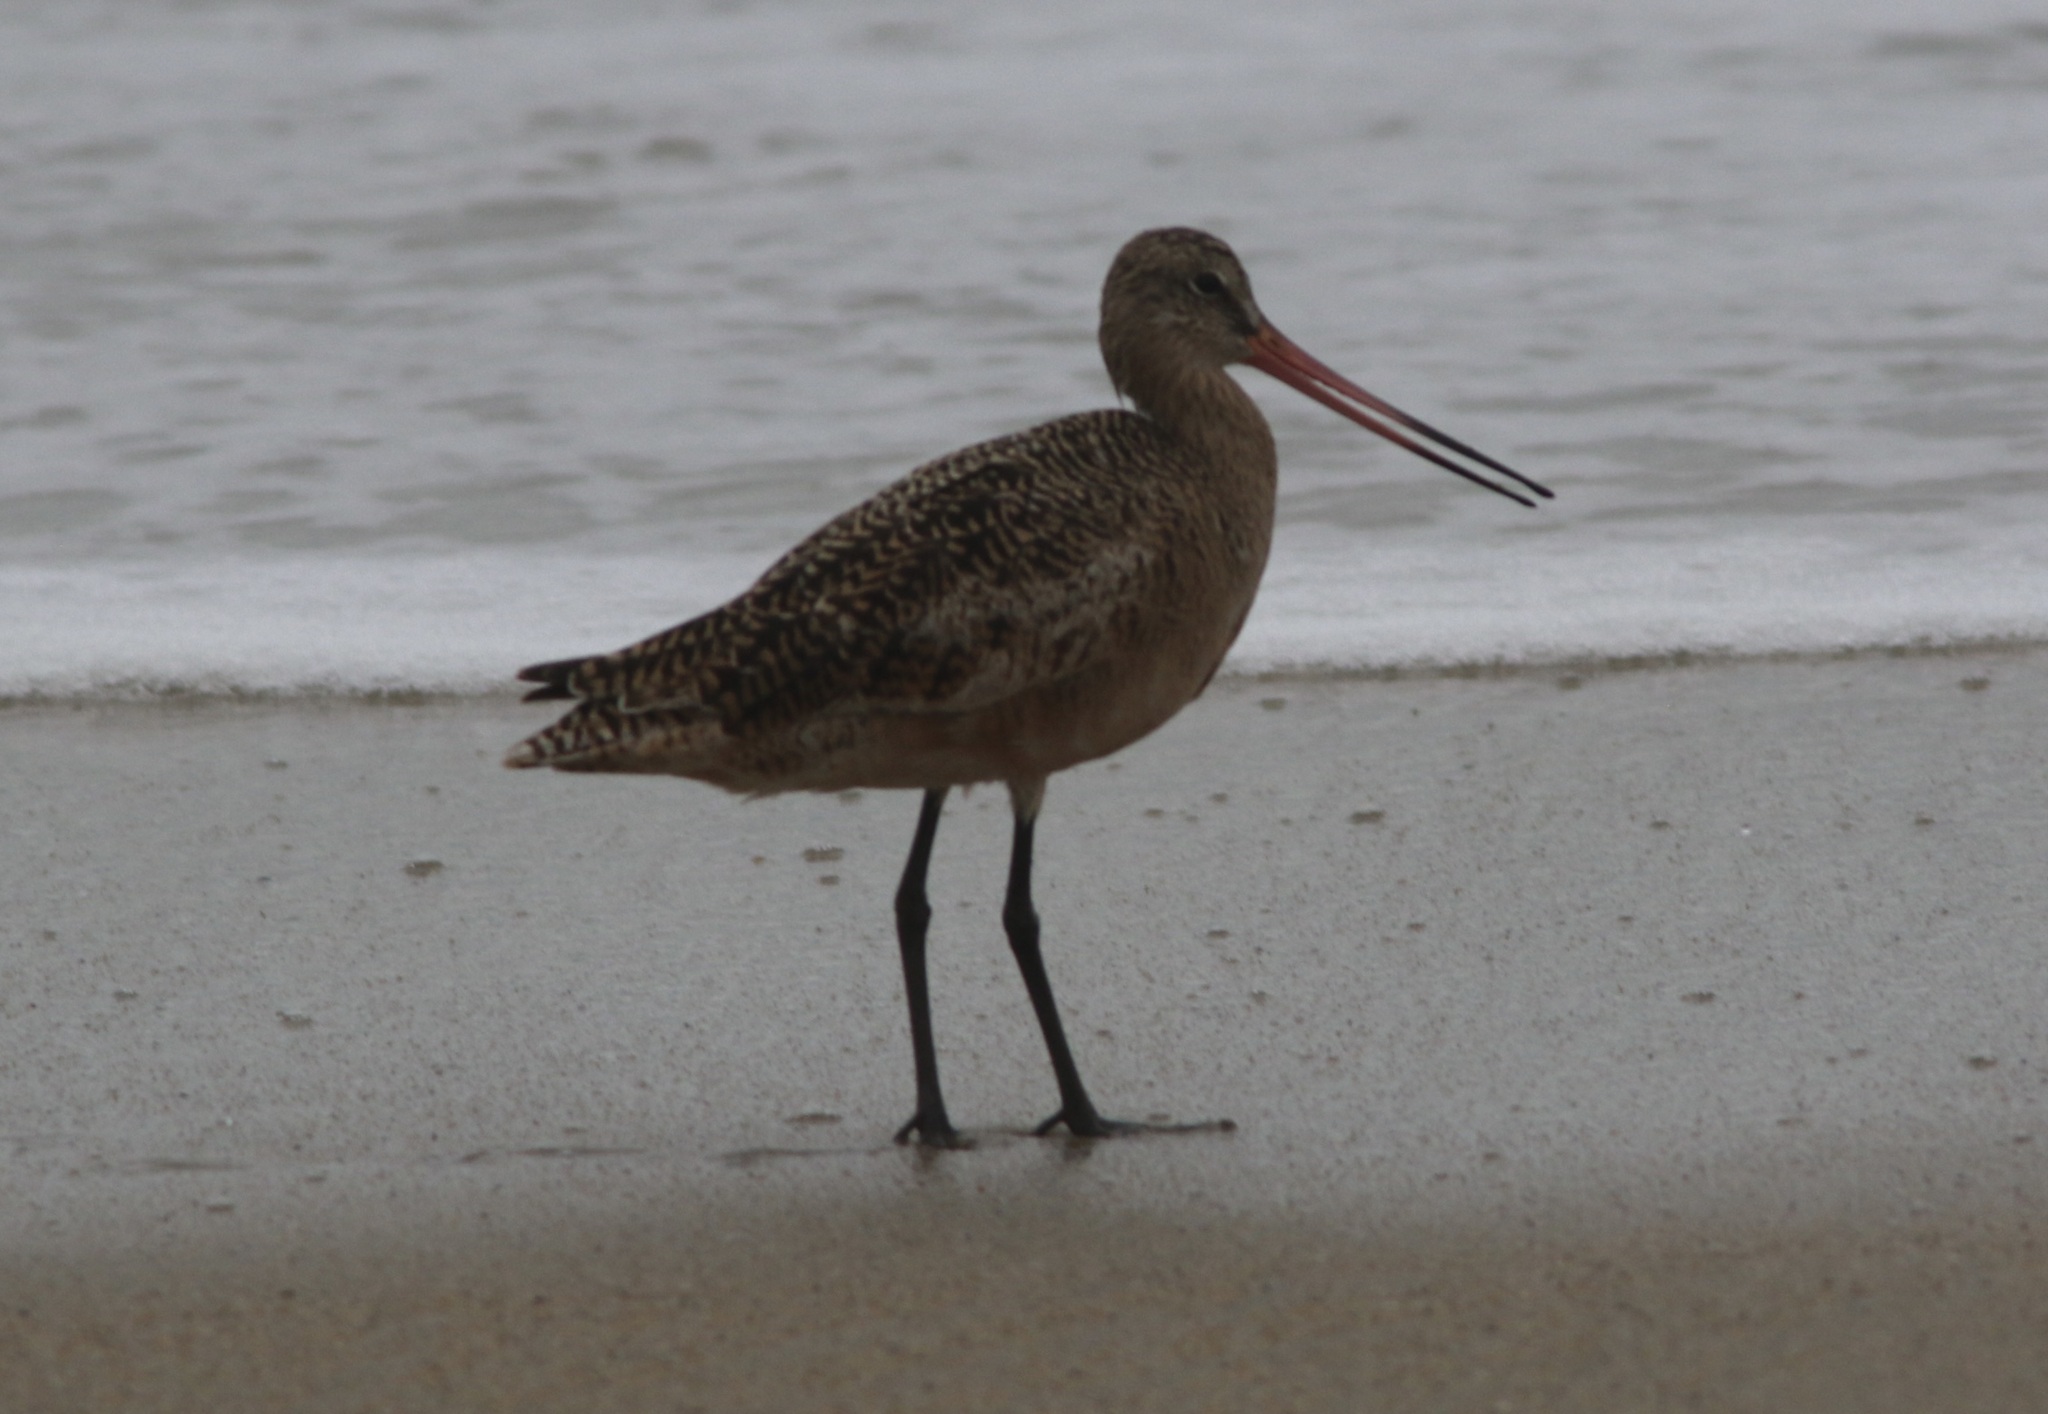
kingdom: Animalia
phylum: Chordata
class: Aves
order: Charadriiformes
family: Scolopacidae
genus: Limosa
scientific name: Limosa fedoa
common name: Marbled godwit
